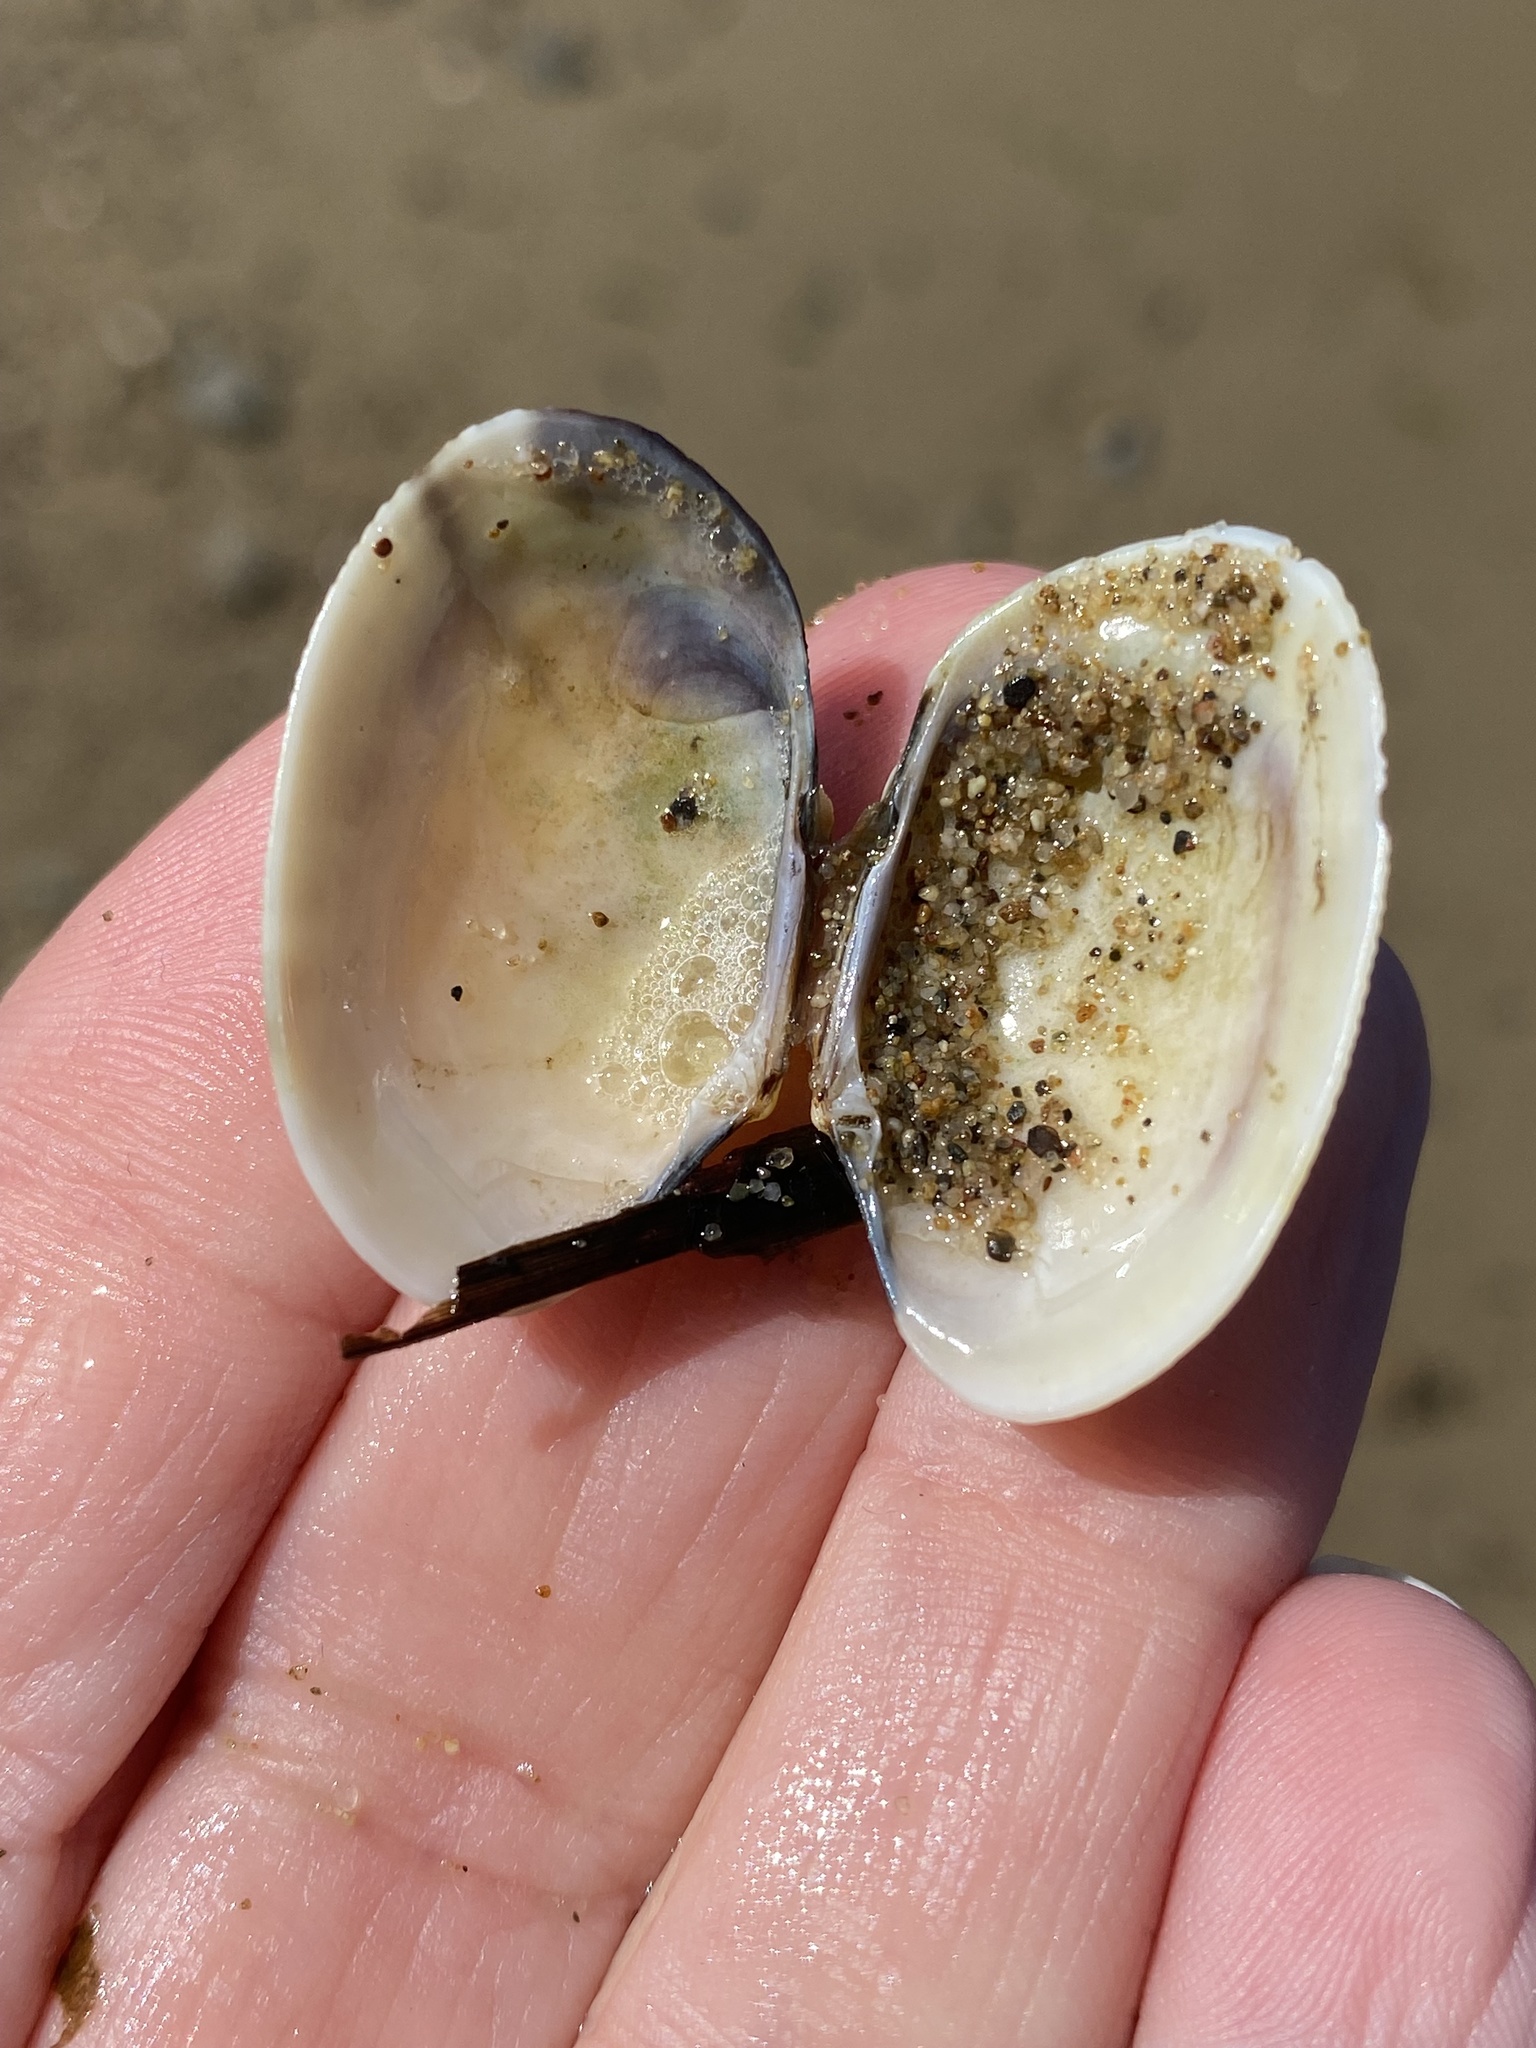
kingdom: Animalia
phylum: Mollusca
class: Bivalvia
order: Venerida
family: Veneridae
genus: Ruditapes
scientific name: Ruditapes philippinarum
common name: Manila clam
